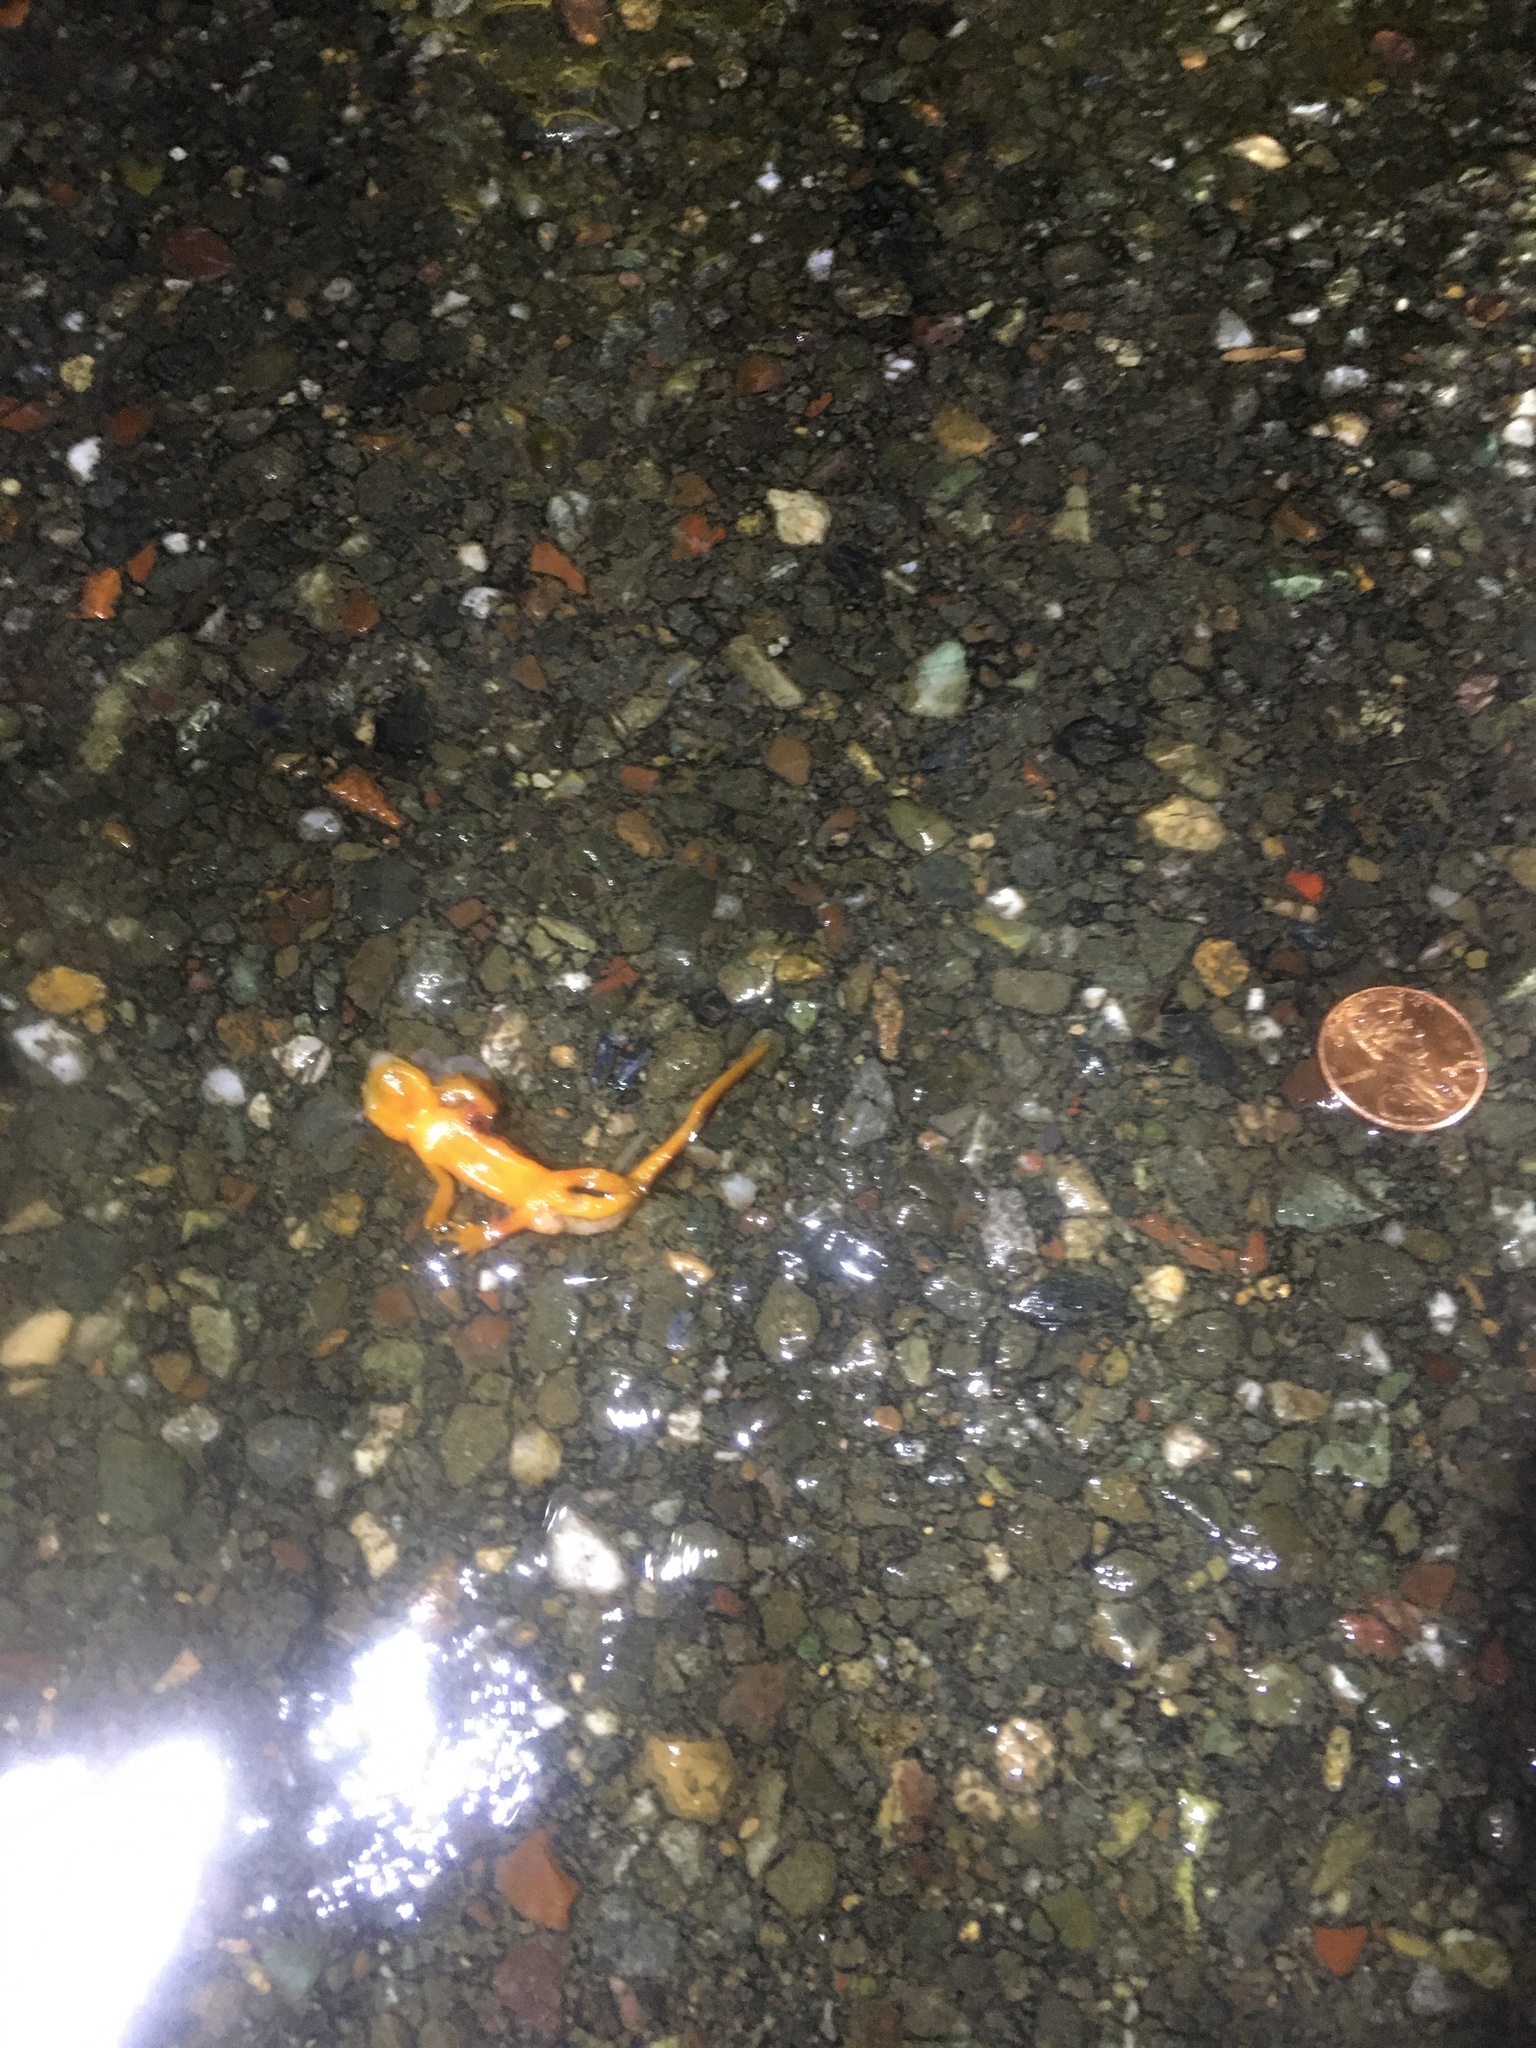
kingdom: Animalia
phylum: Chordata
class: Amphibia
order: Caudata
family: Salamandridae
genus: Taricha
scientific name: Taricha
